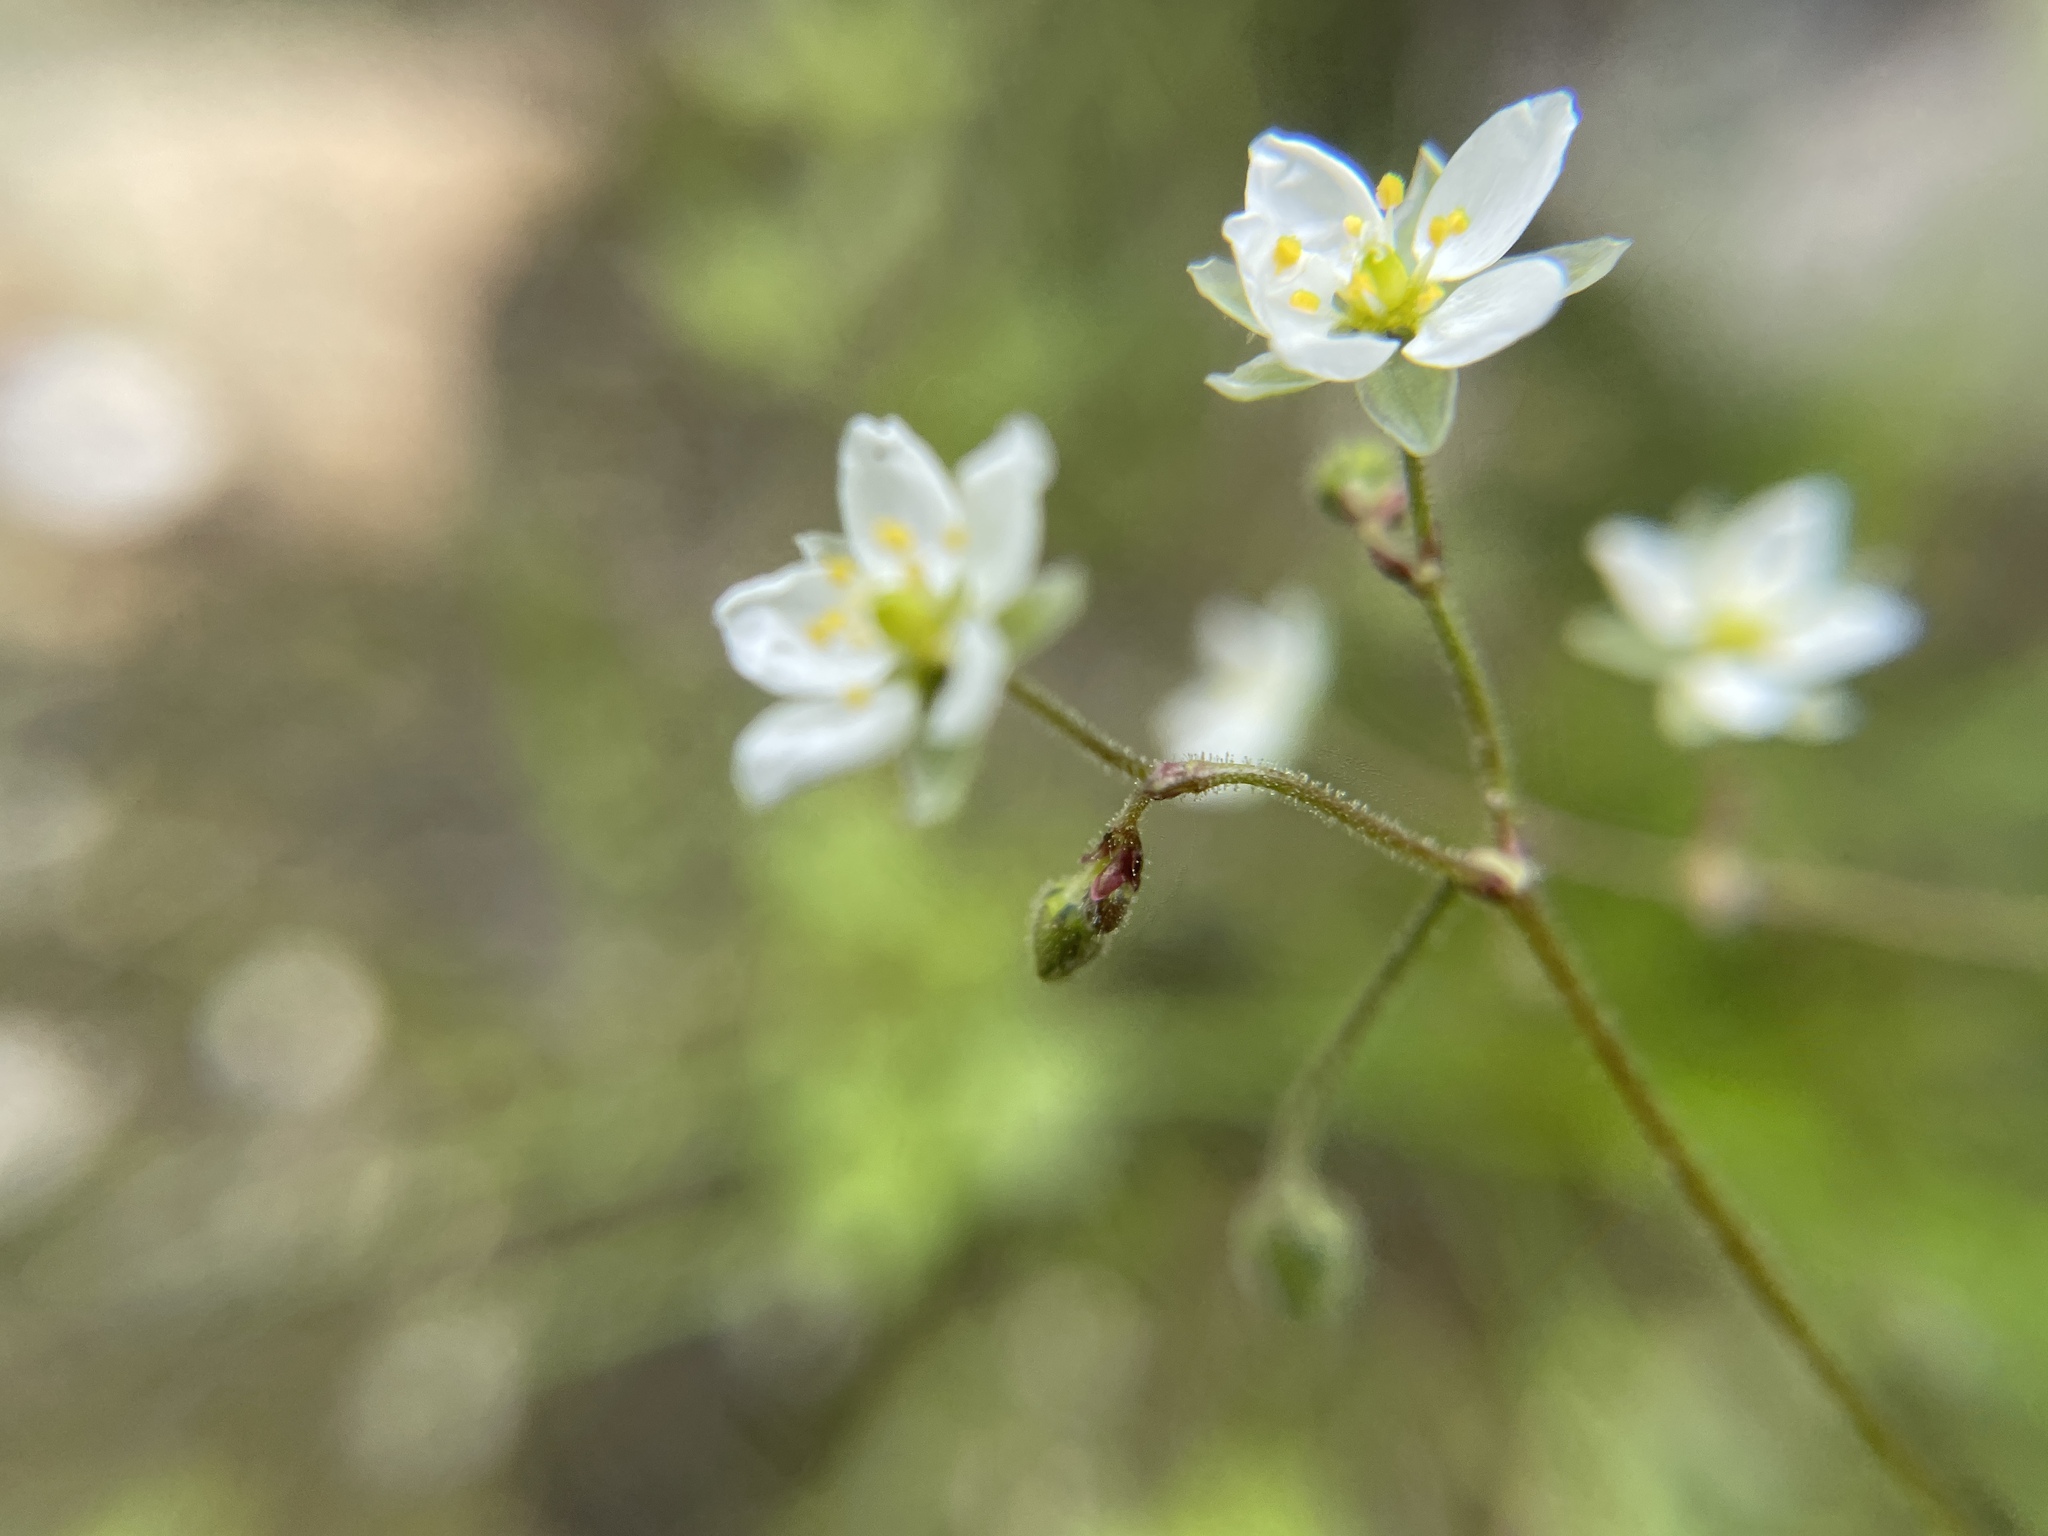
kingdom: Plantae
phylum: Tracheophyta
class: Magnoliopsida
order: Caryophyllales
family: Caryophyllaceae
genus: Spergula
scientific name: Spergula arvensis
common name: Corn spurrey
